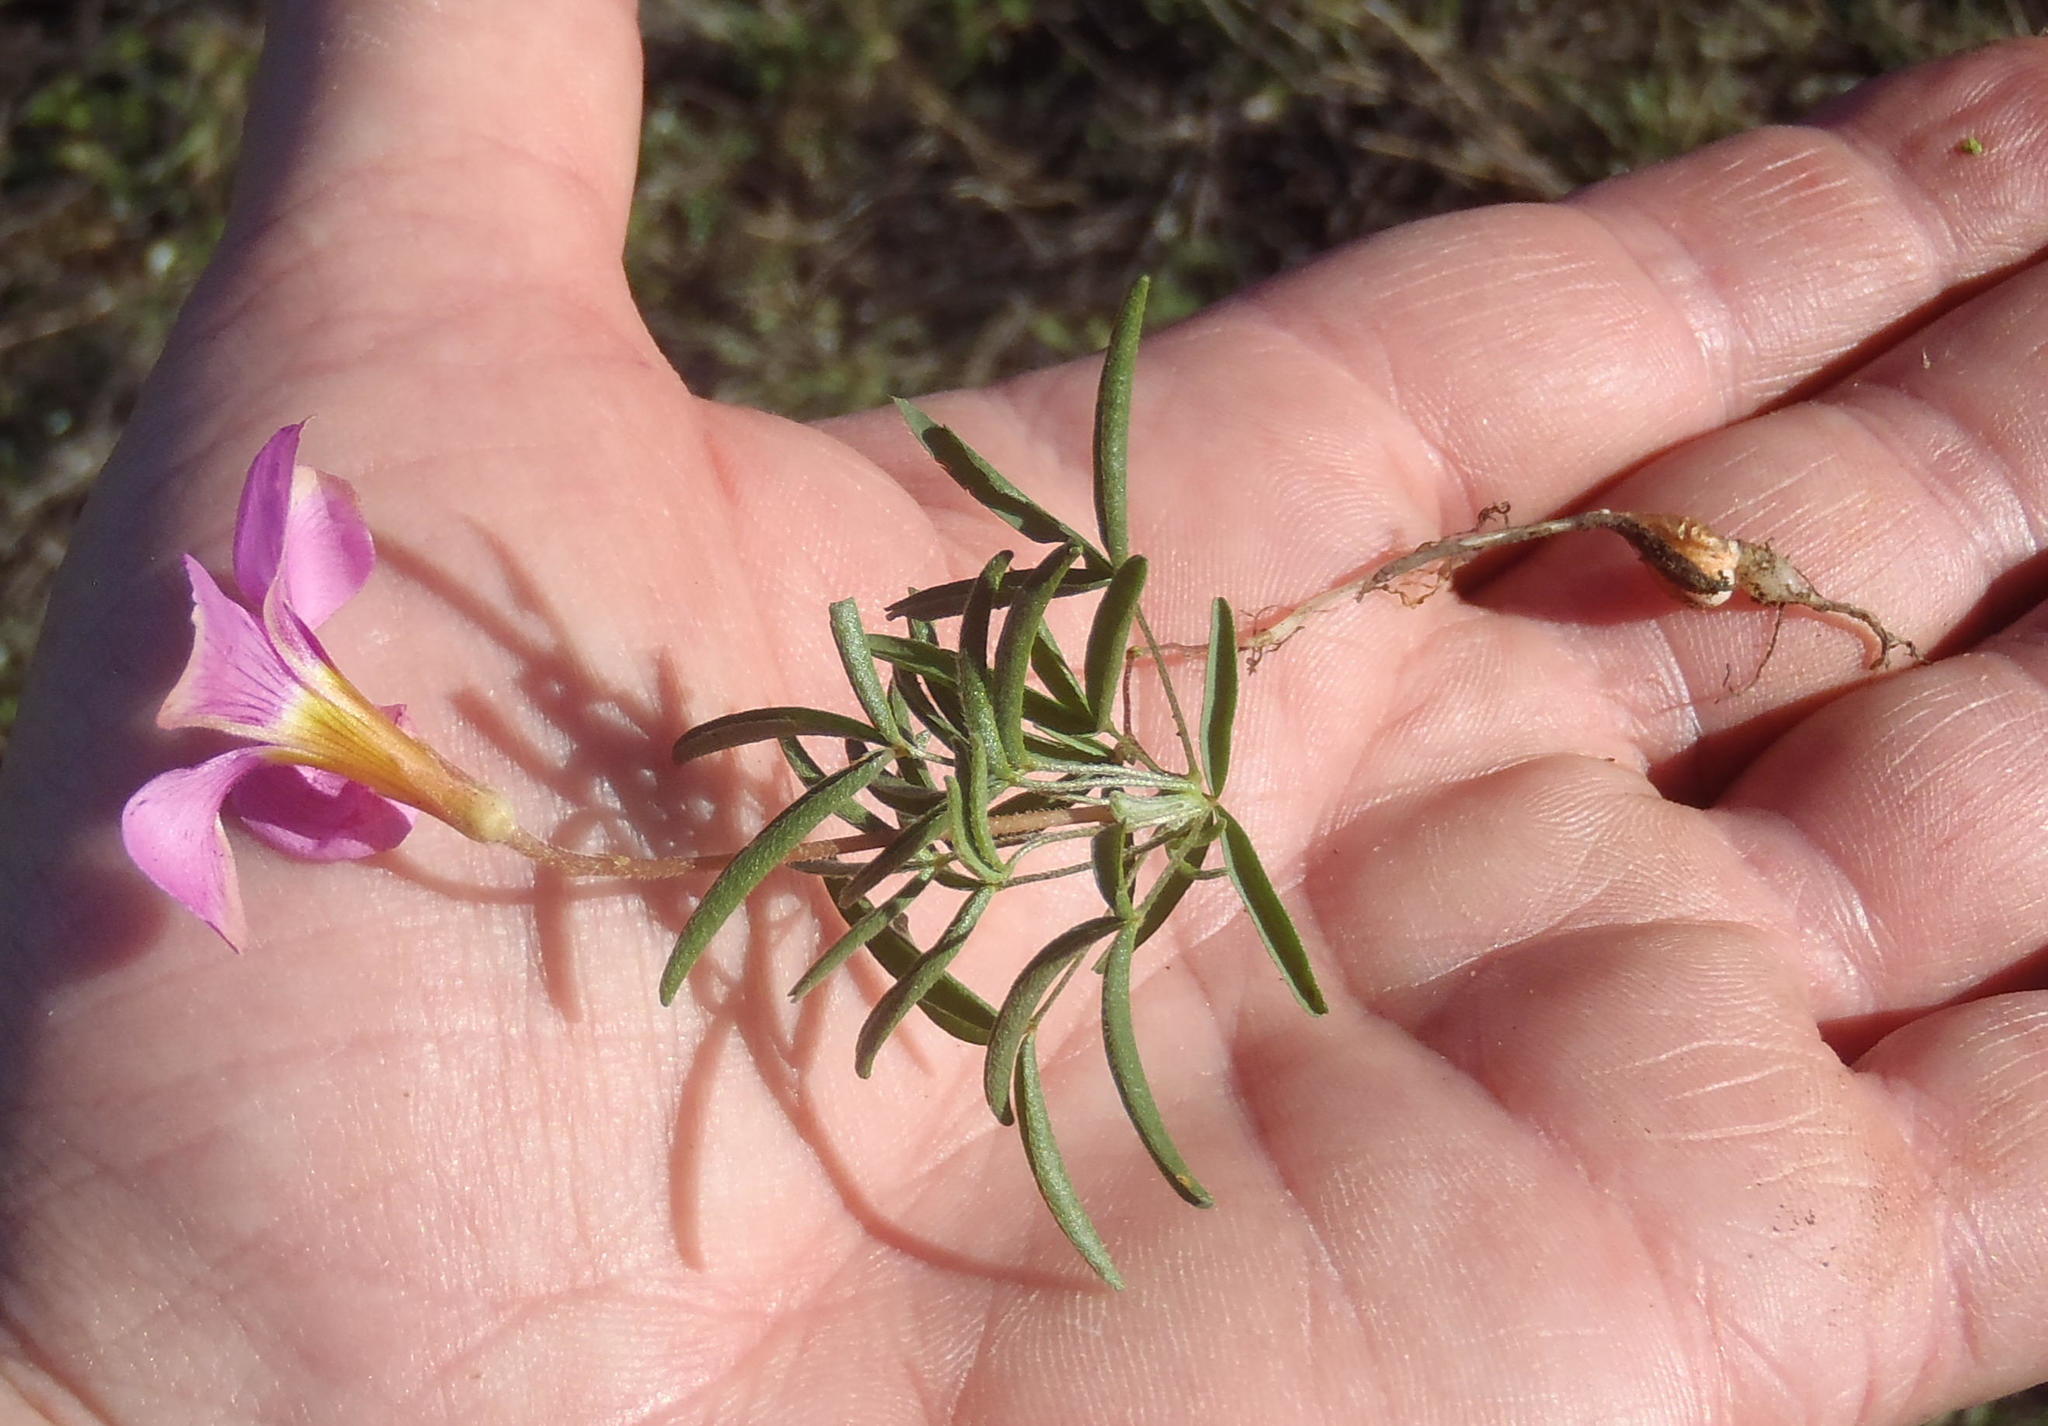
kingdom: Plantae
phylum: Tracheophyta
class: Magnoliopsida
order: Oxalidales
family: Oxalidaceae
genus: Oxalis
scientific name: Oxalis ciliaris
